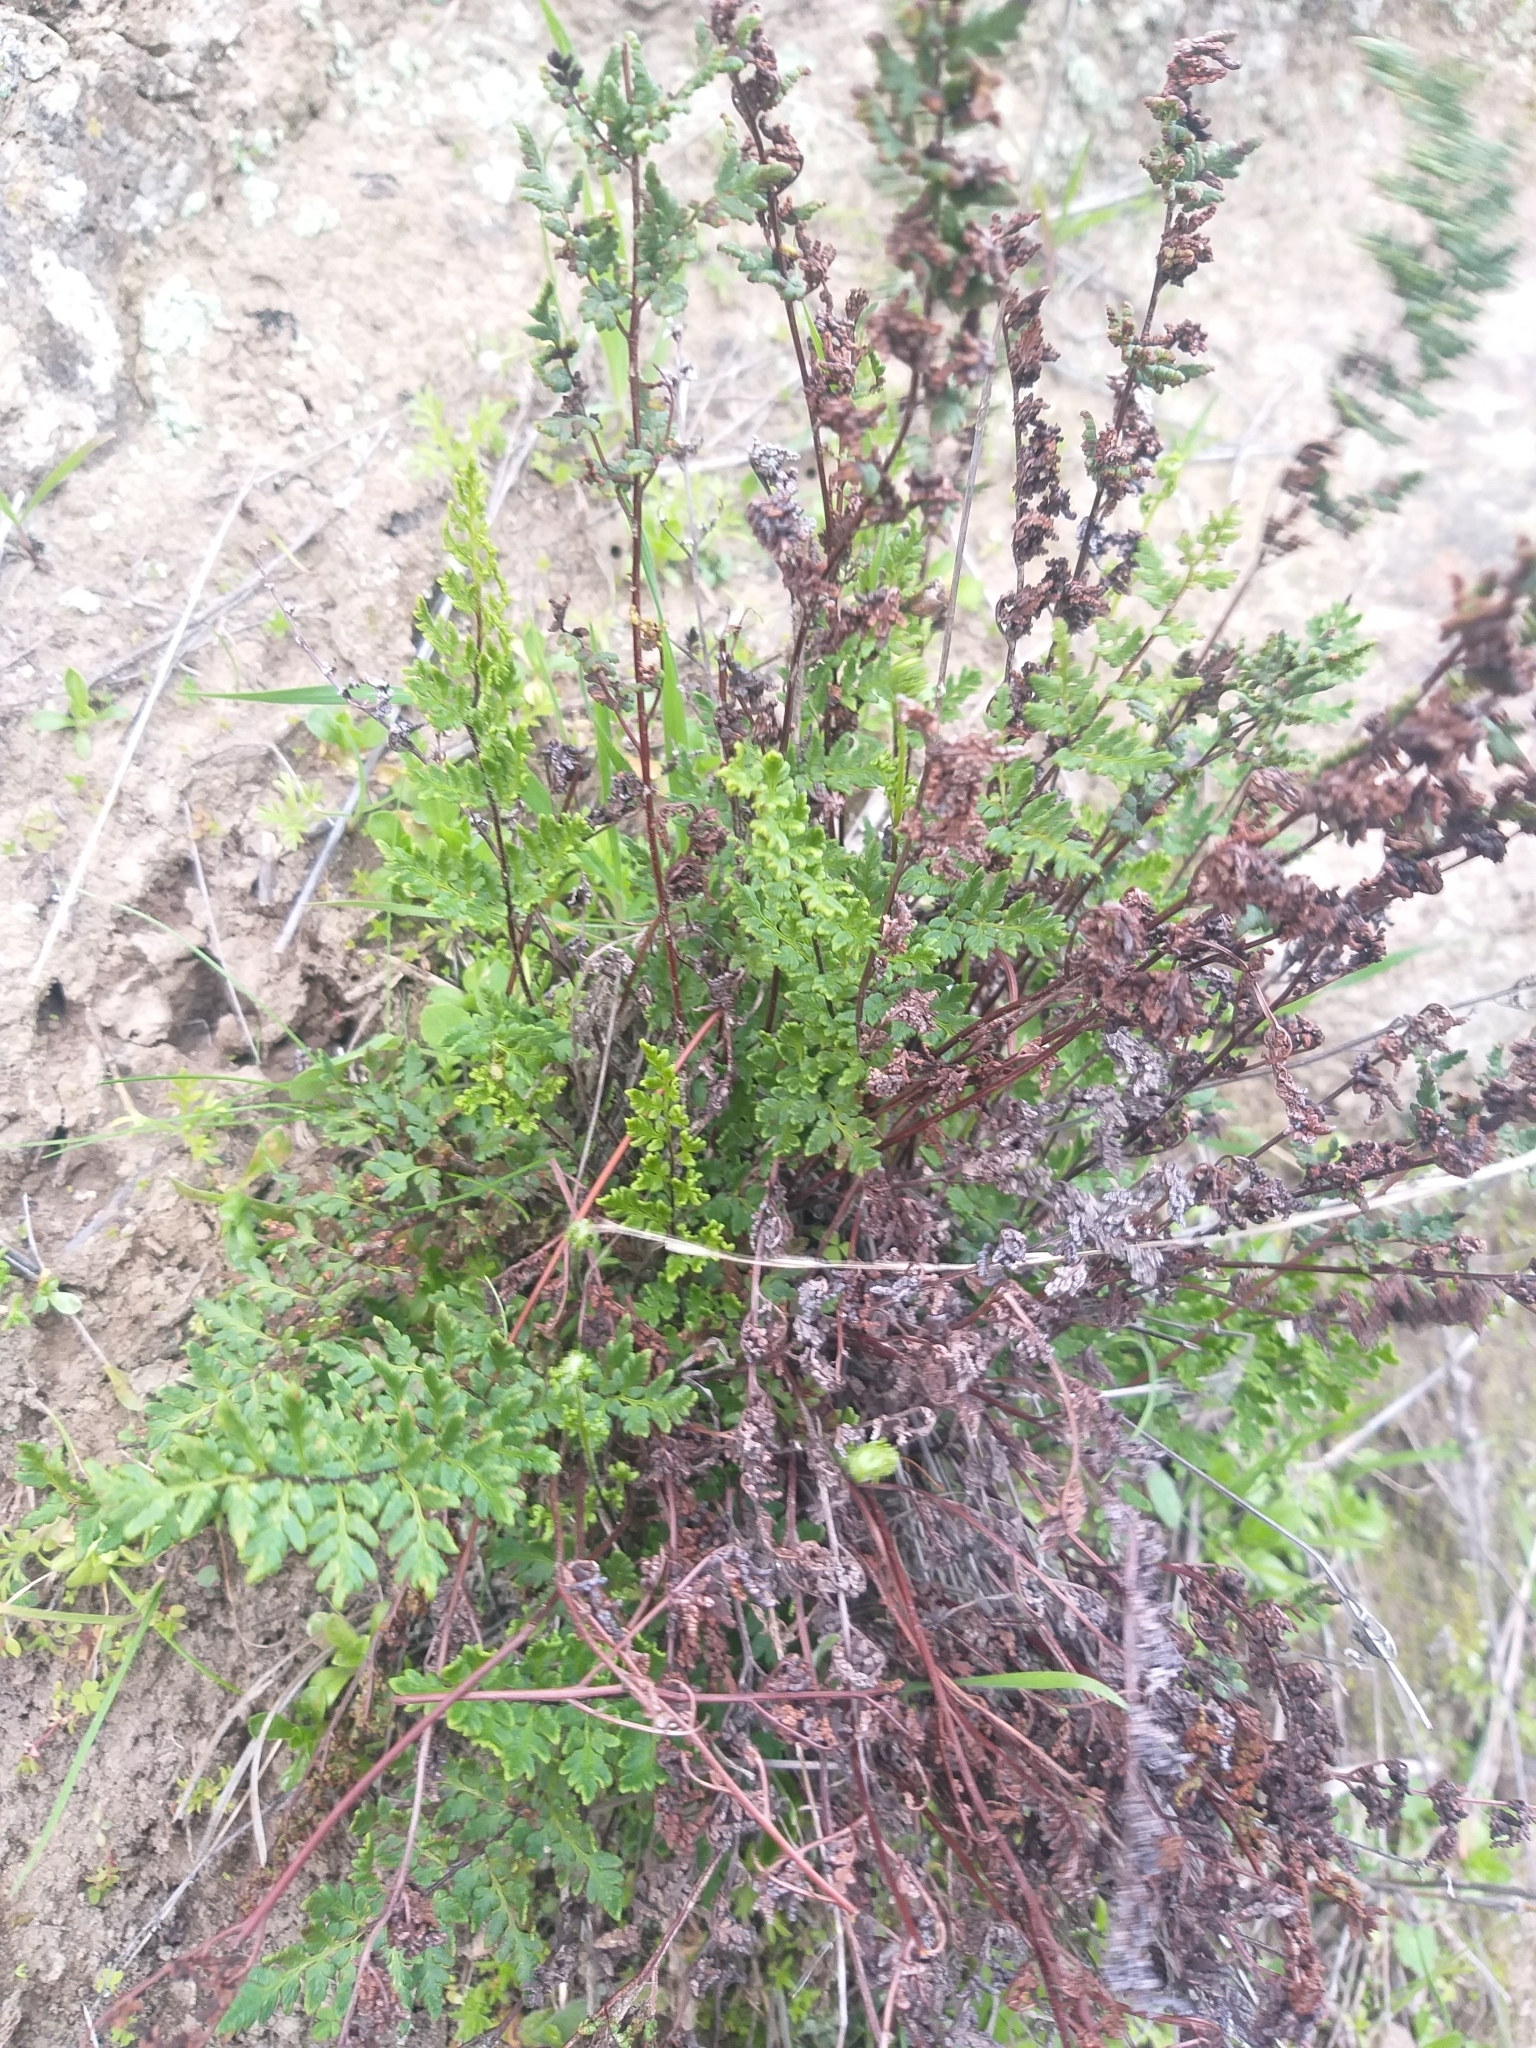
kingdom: Plantae
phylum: Tracheophyta
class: Polypodiopsida
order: Polypodiales
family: Pteridaceae
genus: Cheilanthes
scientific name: Cheilanthes sieberi
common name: Mulga fern
